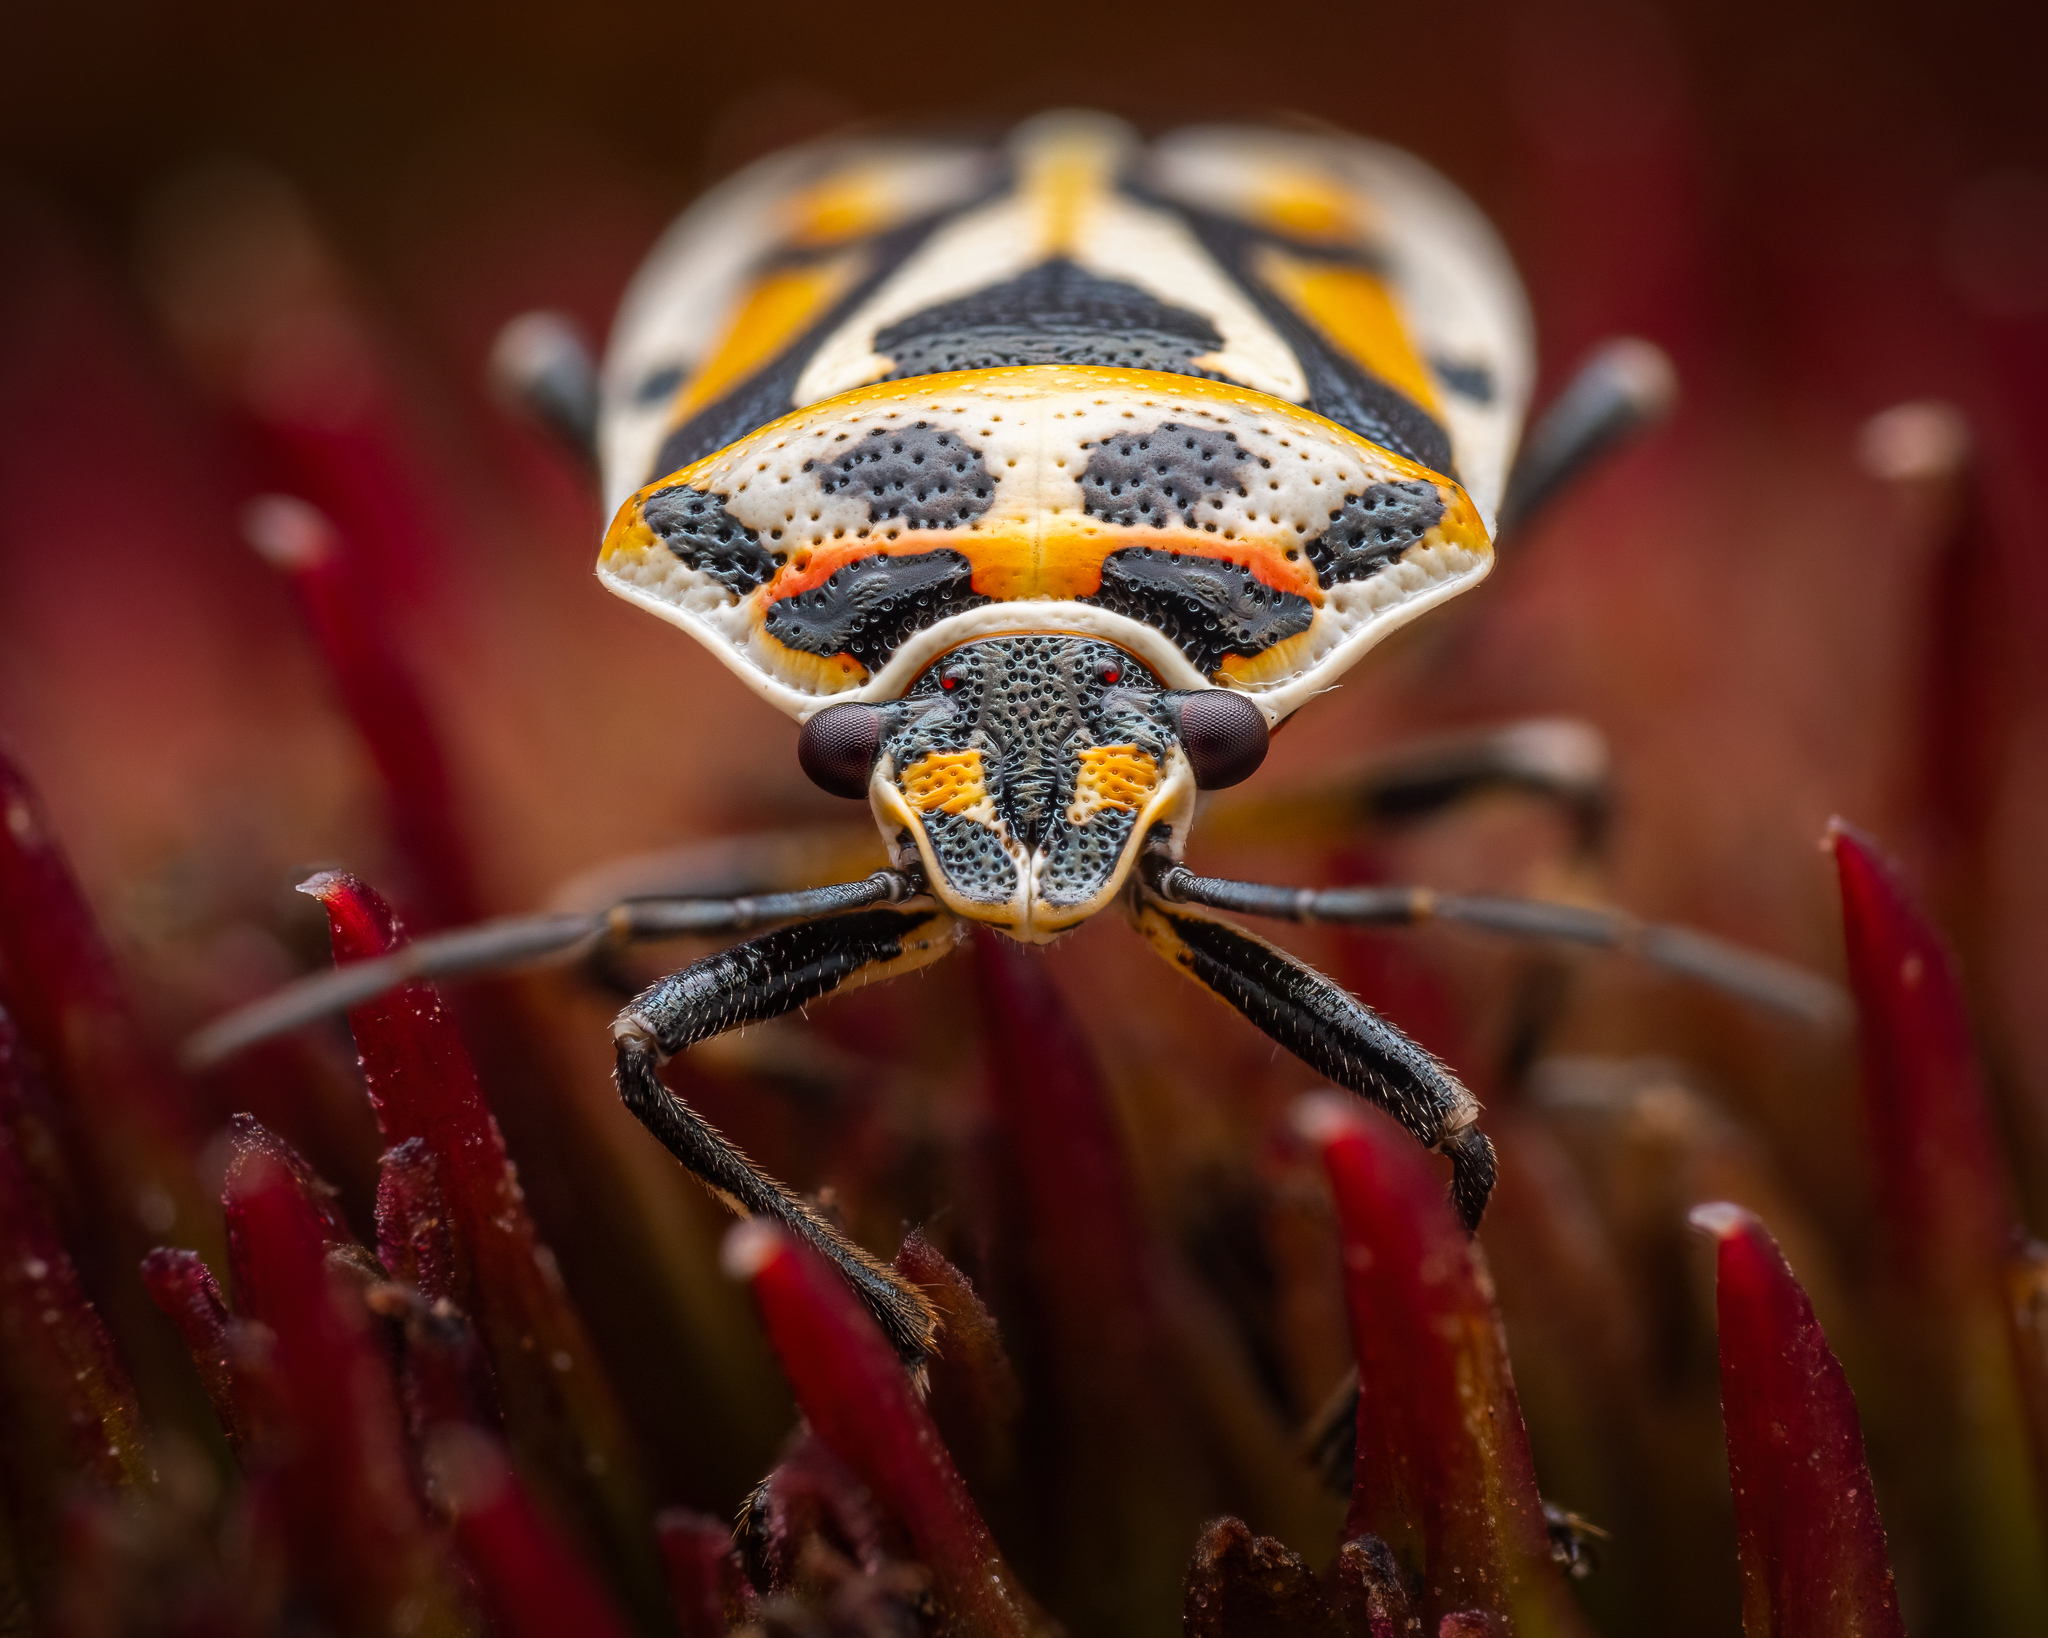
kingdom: Animalia
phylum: Arthropoda
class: Insecta
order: Hemiptera
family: Pentatomidae
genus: Eurydema
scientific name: Eurydema ornata
